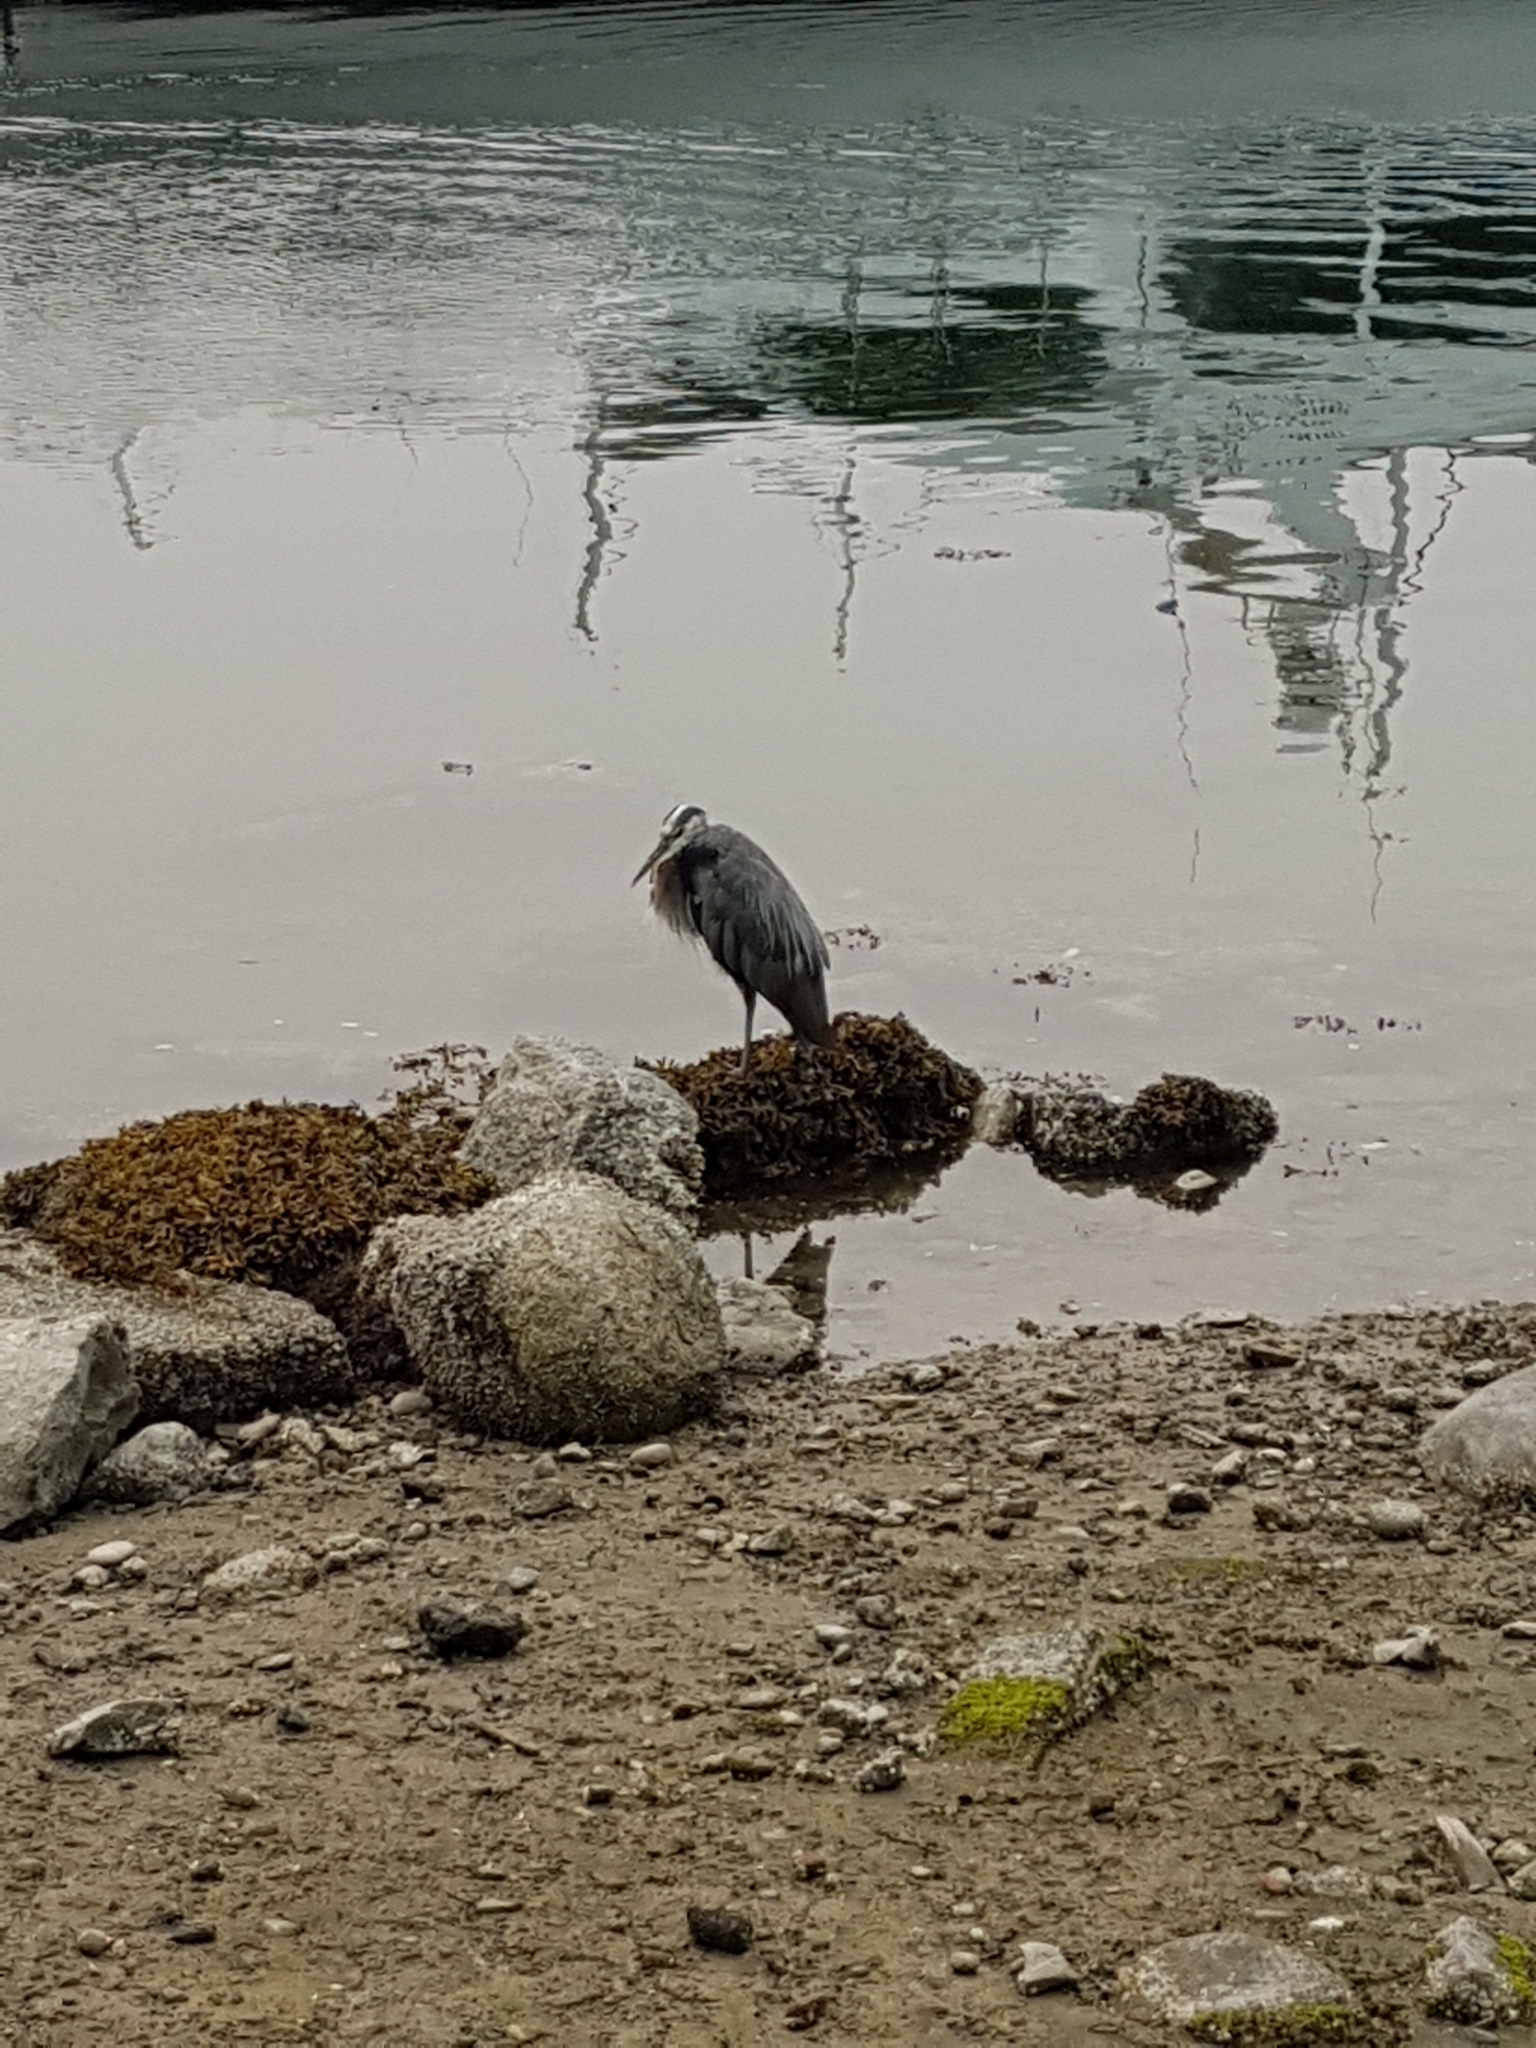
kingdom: Animalia
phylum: Chordata
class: Aves
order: Pelecaniformes
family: Ardeidae
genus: Ardea
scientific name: Ardea herodias
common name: Great blue heron
